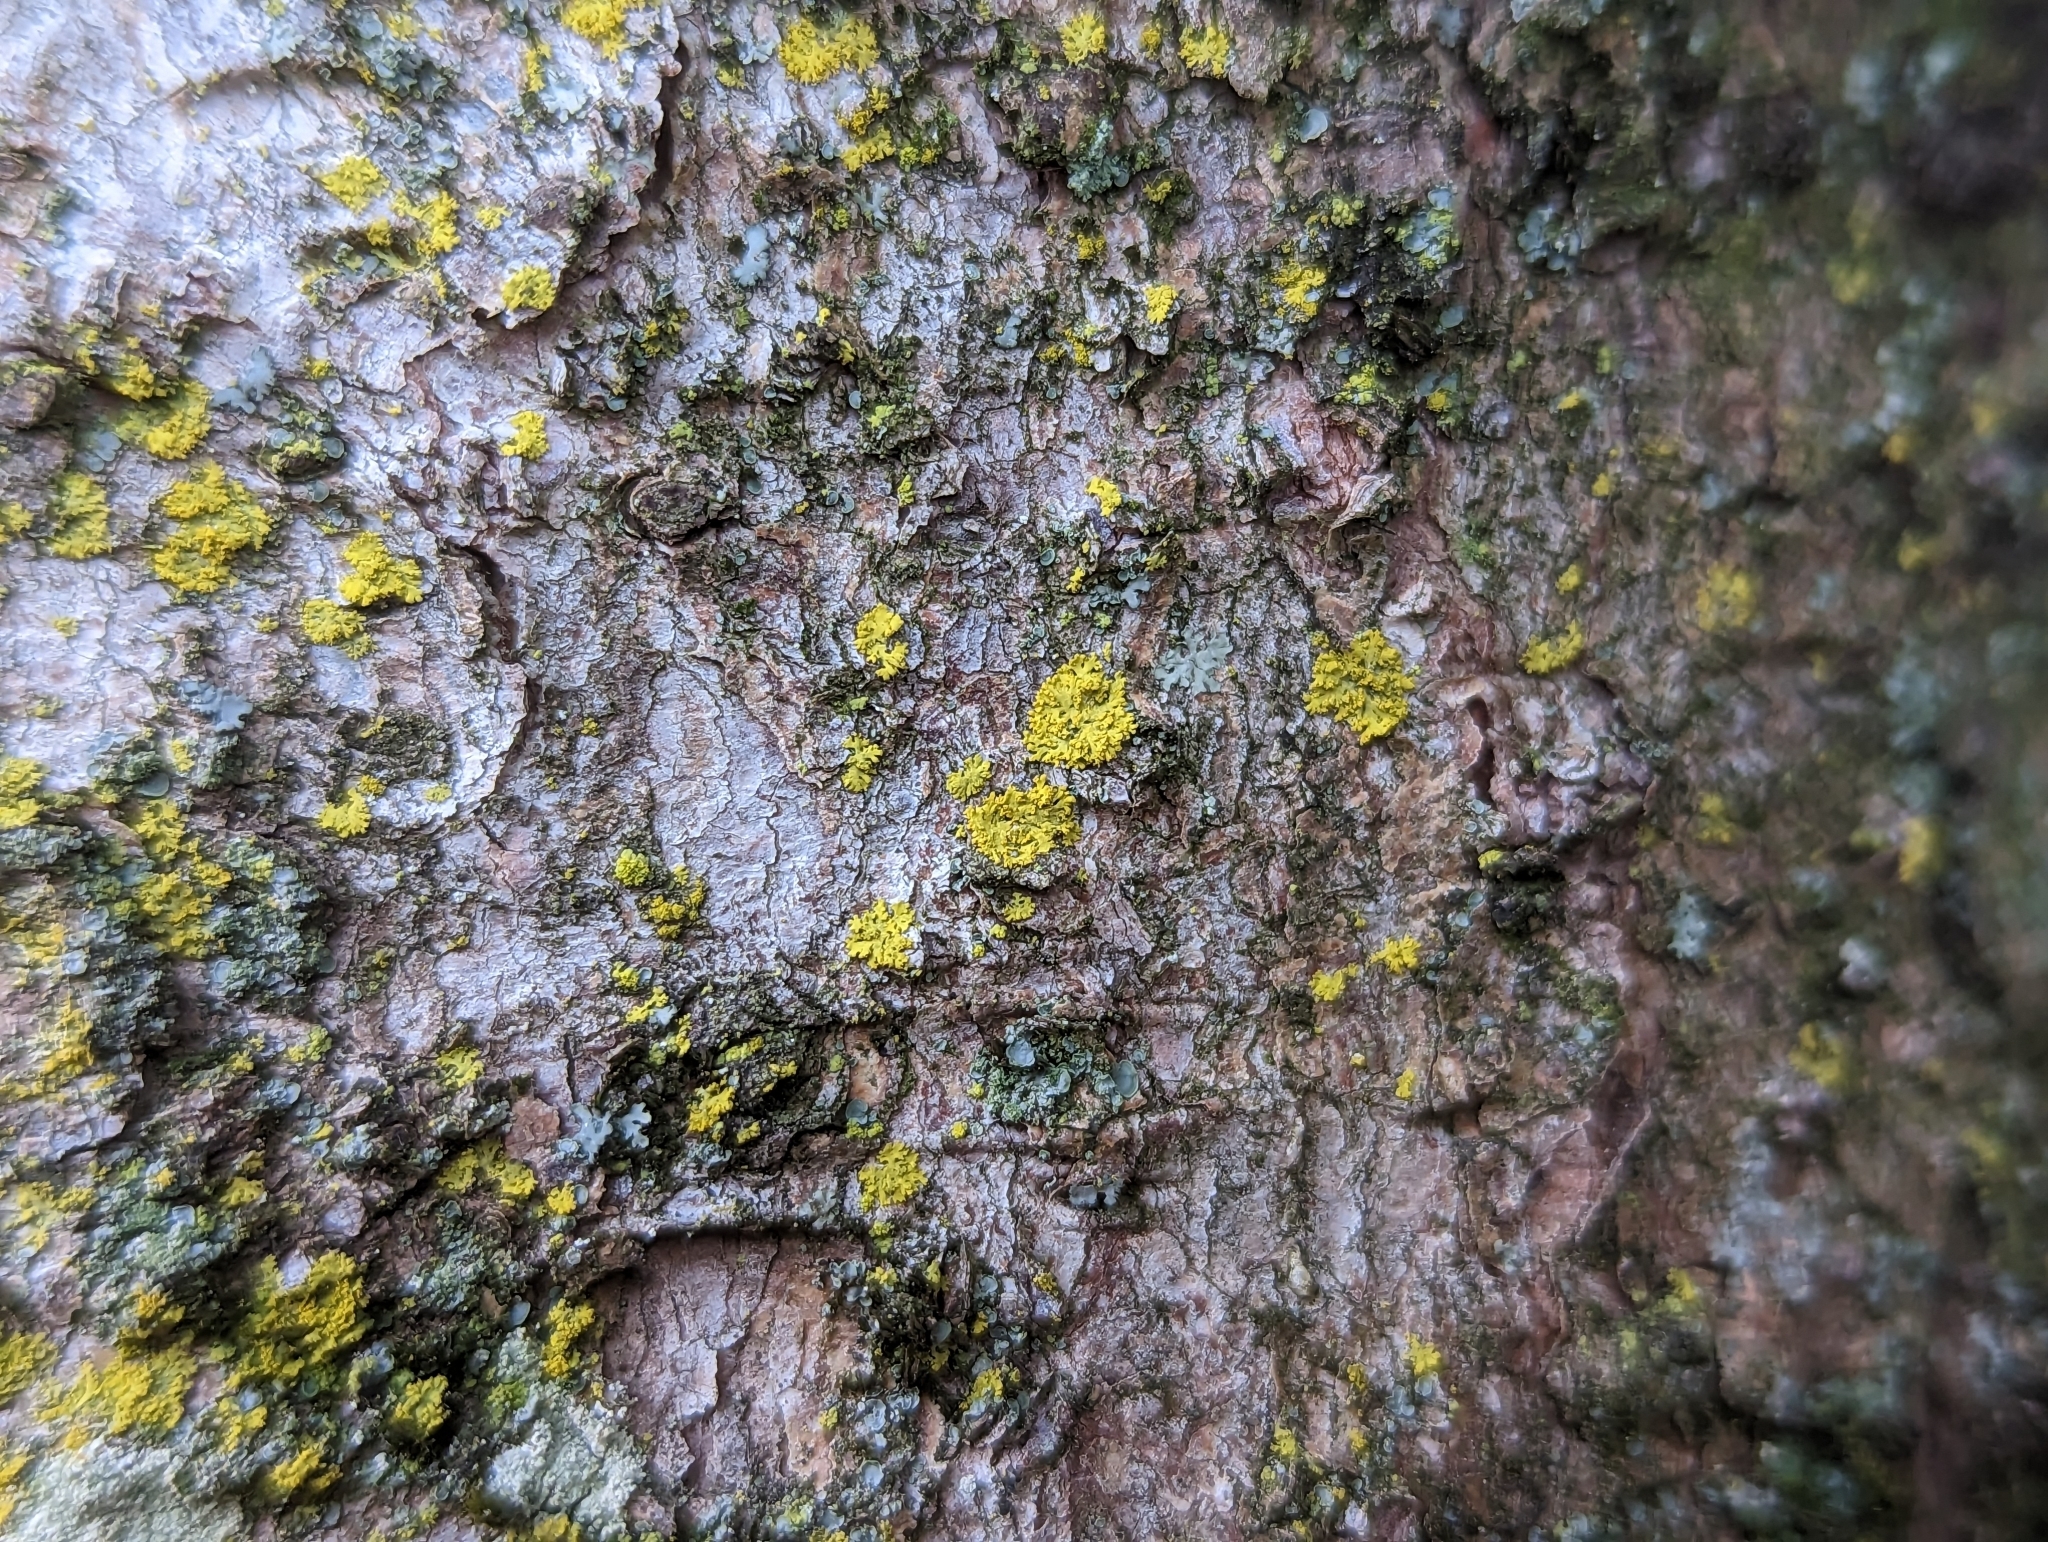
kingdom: Fungi
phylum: Ascomycota
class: Candelariomycetes
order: Candelariales
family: Candelariaceae
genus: Candelaria
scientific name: Candelaria concolor
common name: Candleflame lichen
